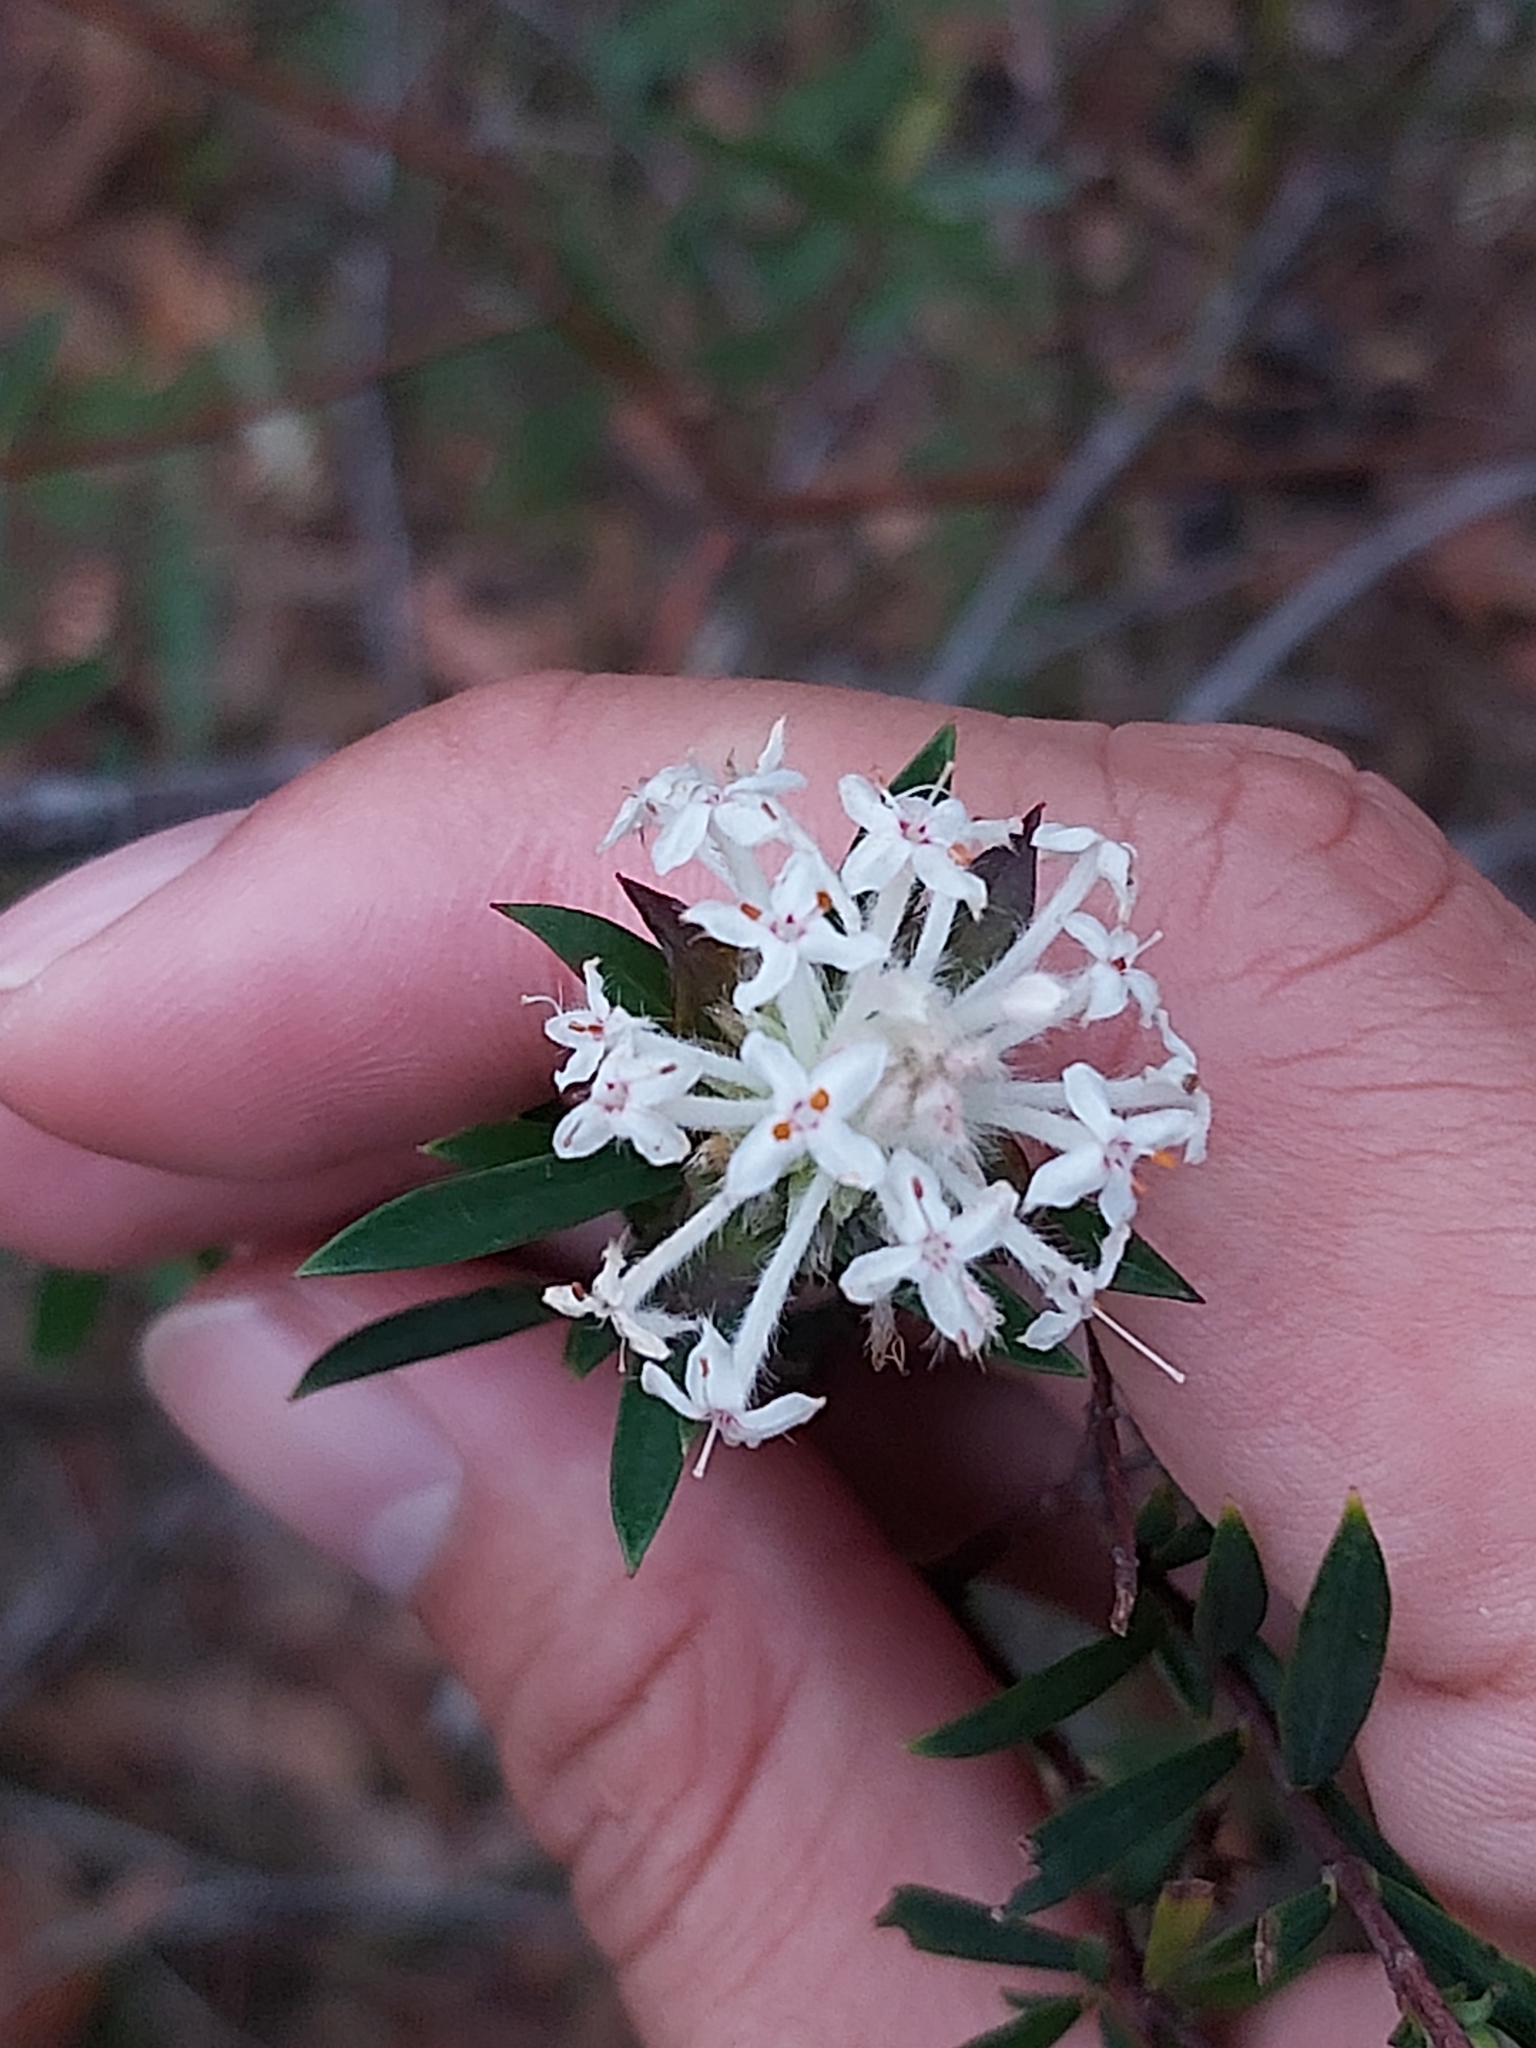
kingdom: Plantae
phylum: Tracheophyta
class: Magnoliopsida
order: Malvales
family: Thymelaeaceae
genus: Pimelea
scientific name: Pimelea linifolia
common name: Queen-of-the-bush
